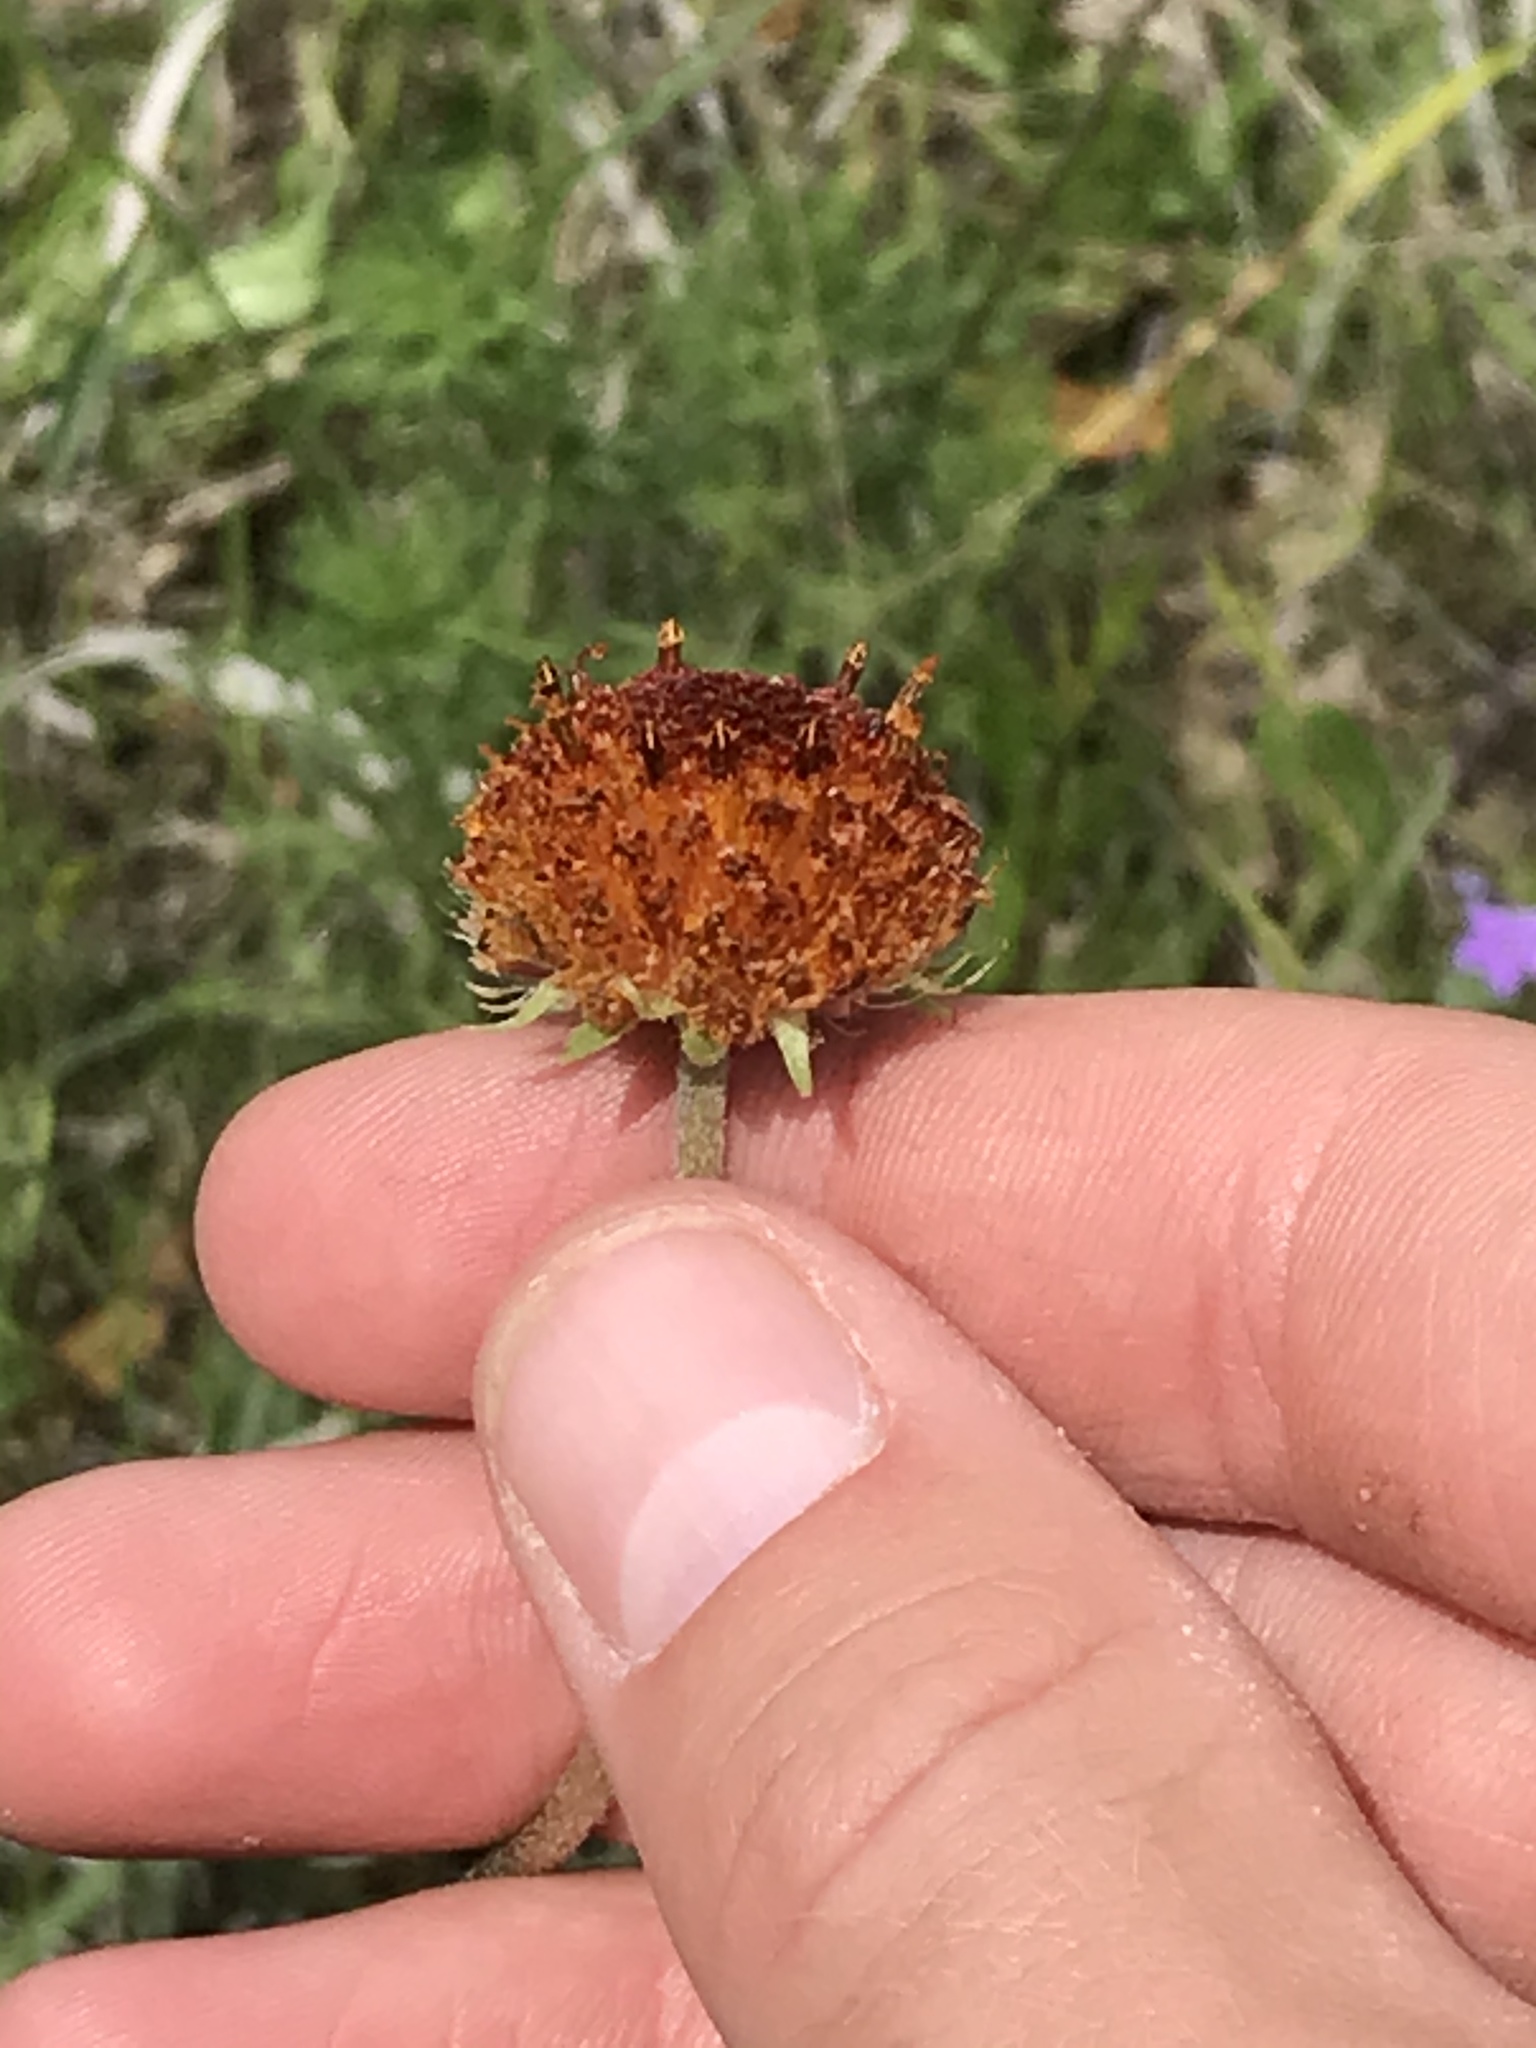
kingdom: Plantae
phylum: Tracheophyta
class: Magnoliopsida
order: Asterales
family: Asteraceae
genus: Gaillardia
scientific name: Gaillardia suavis
